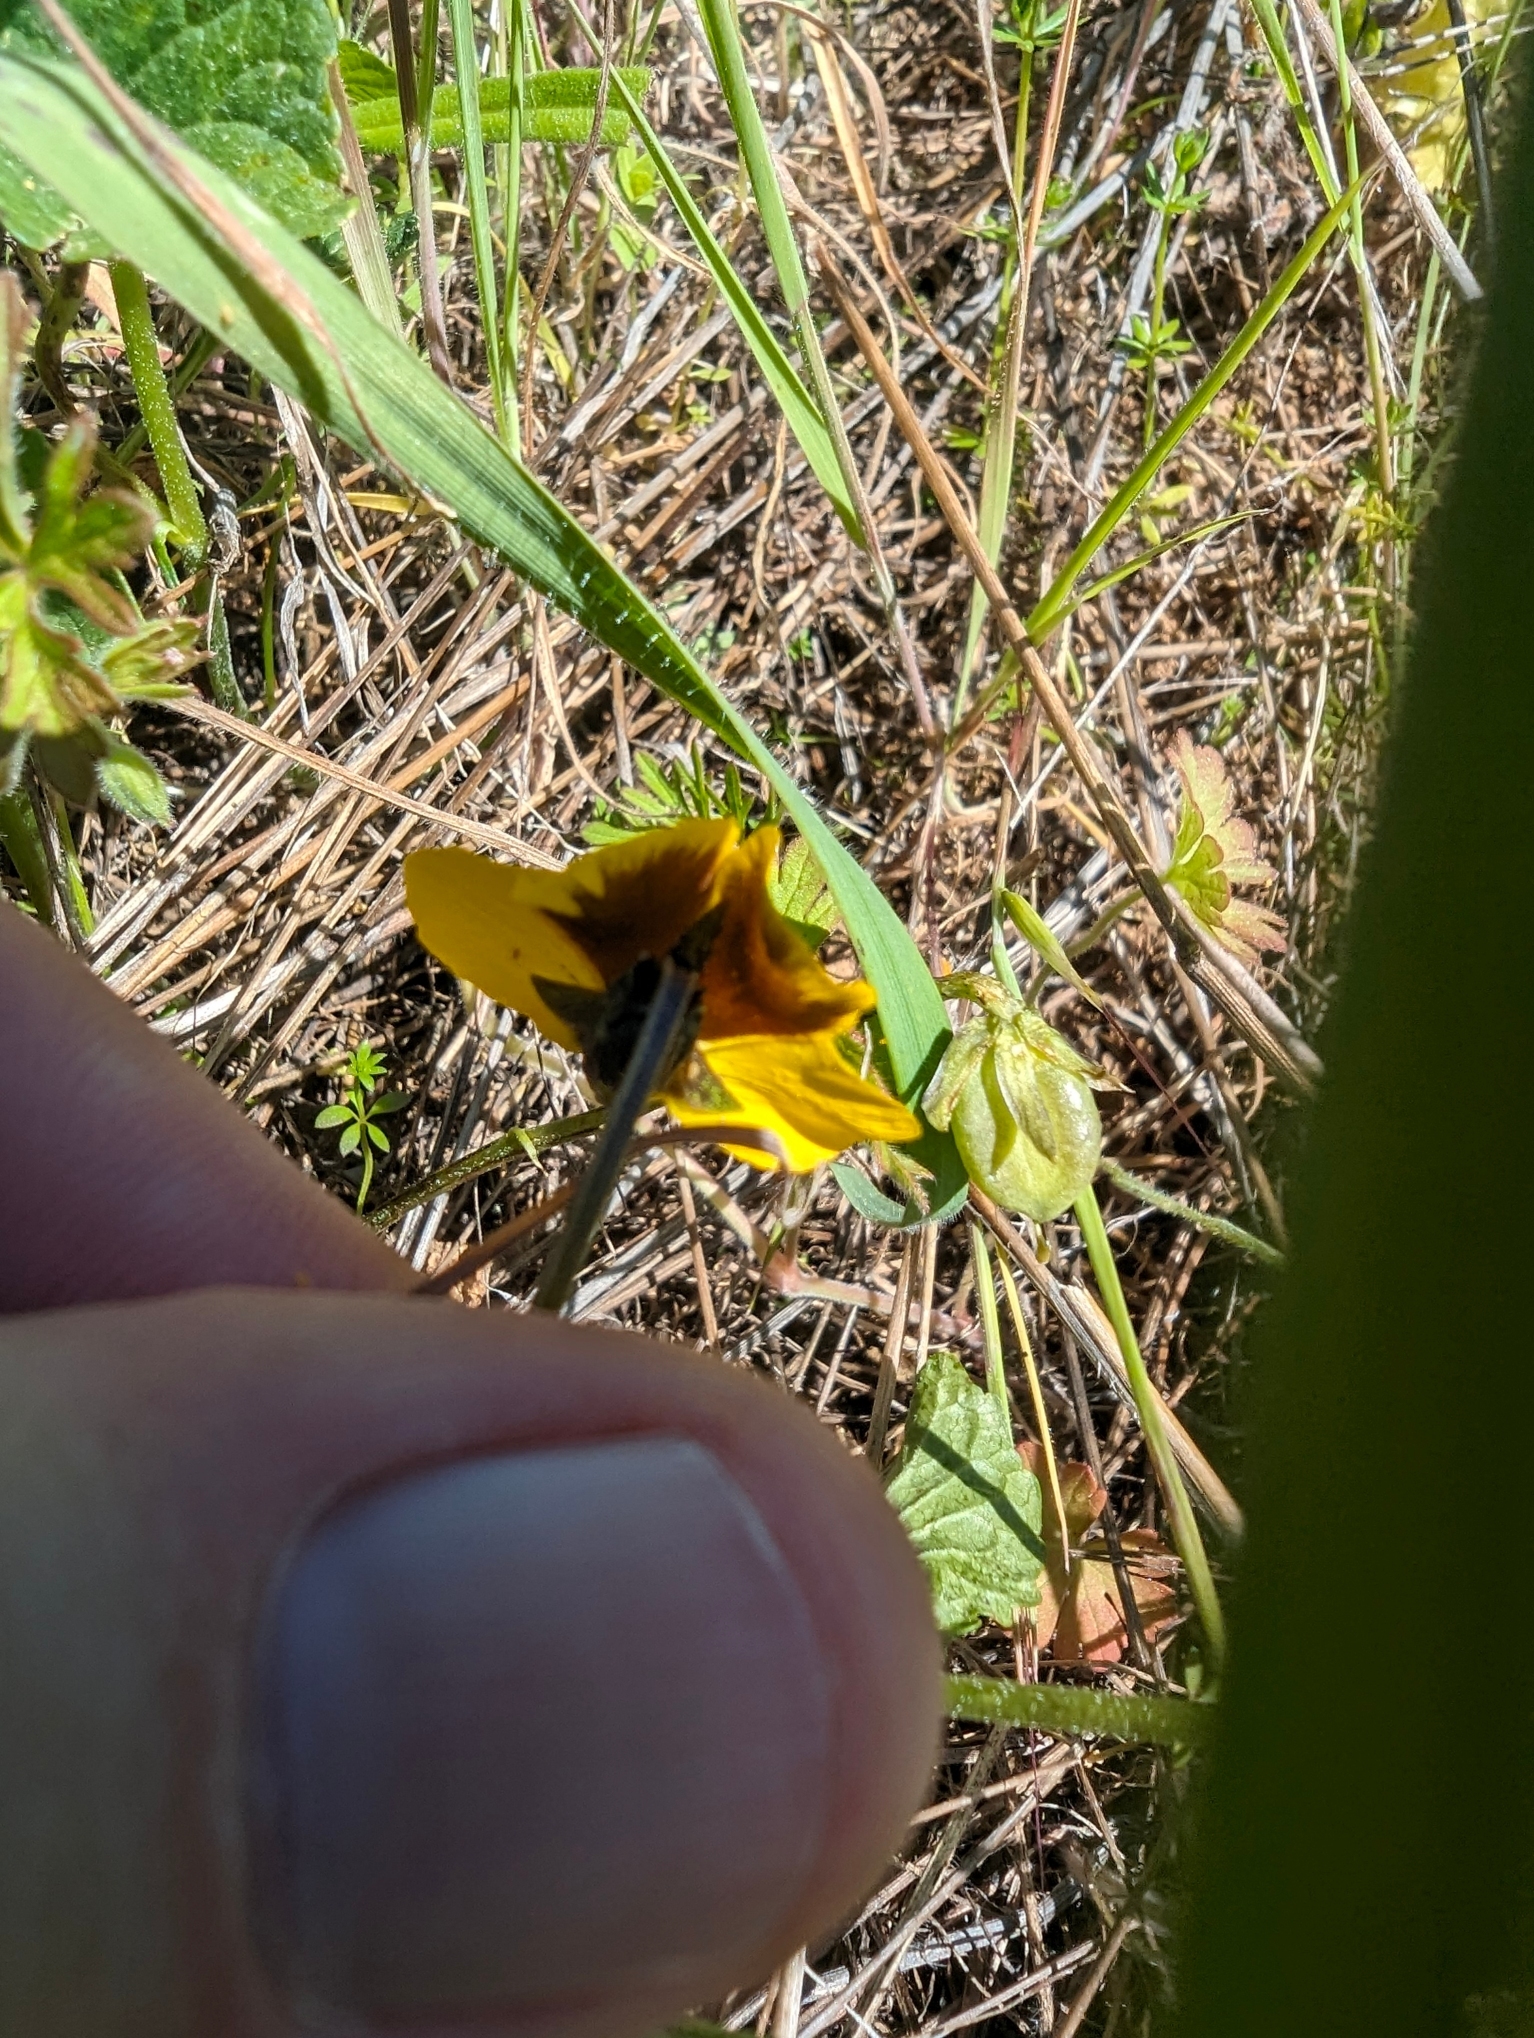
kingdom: Plantae
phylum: Tracheophyta
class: Magnoliopsida
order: Malpighiales
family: Violaceae
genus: Viola
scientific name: Viola pedunculata
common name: California golden violet
